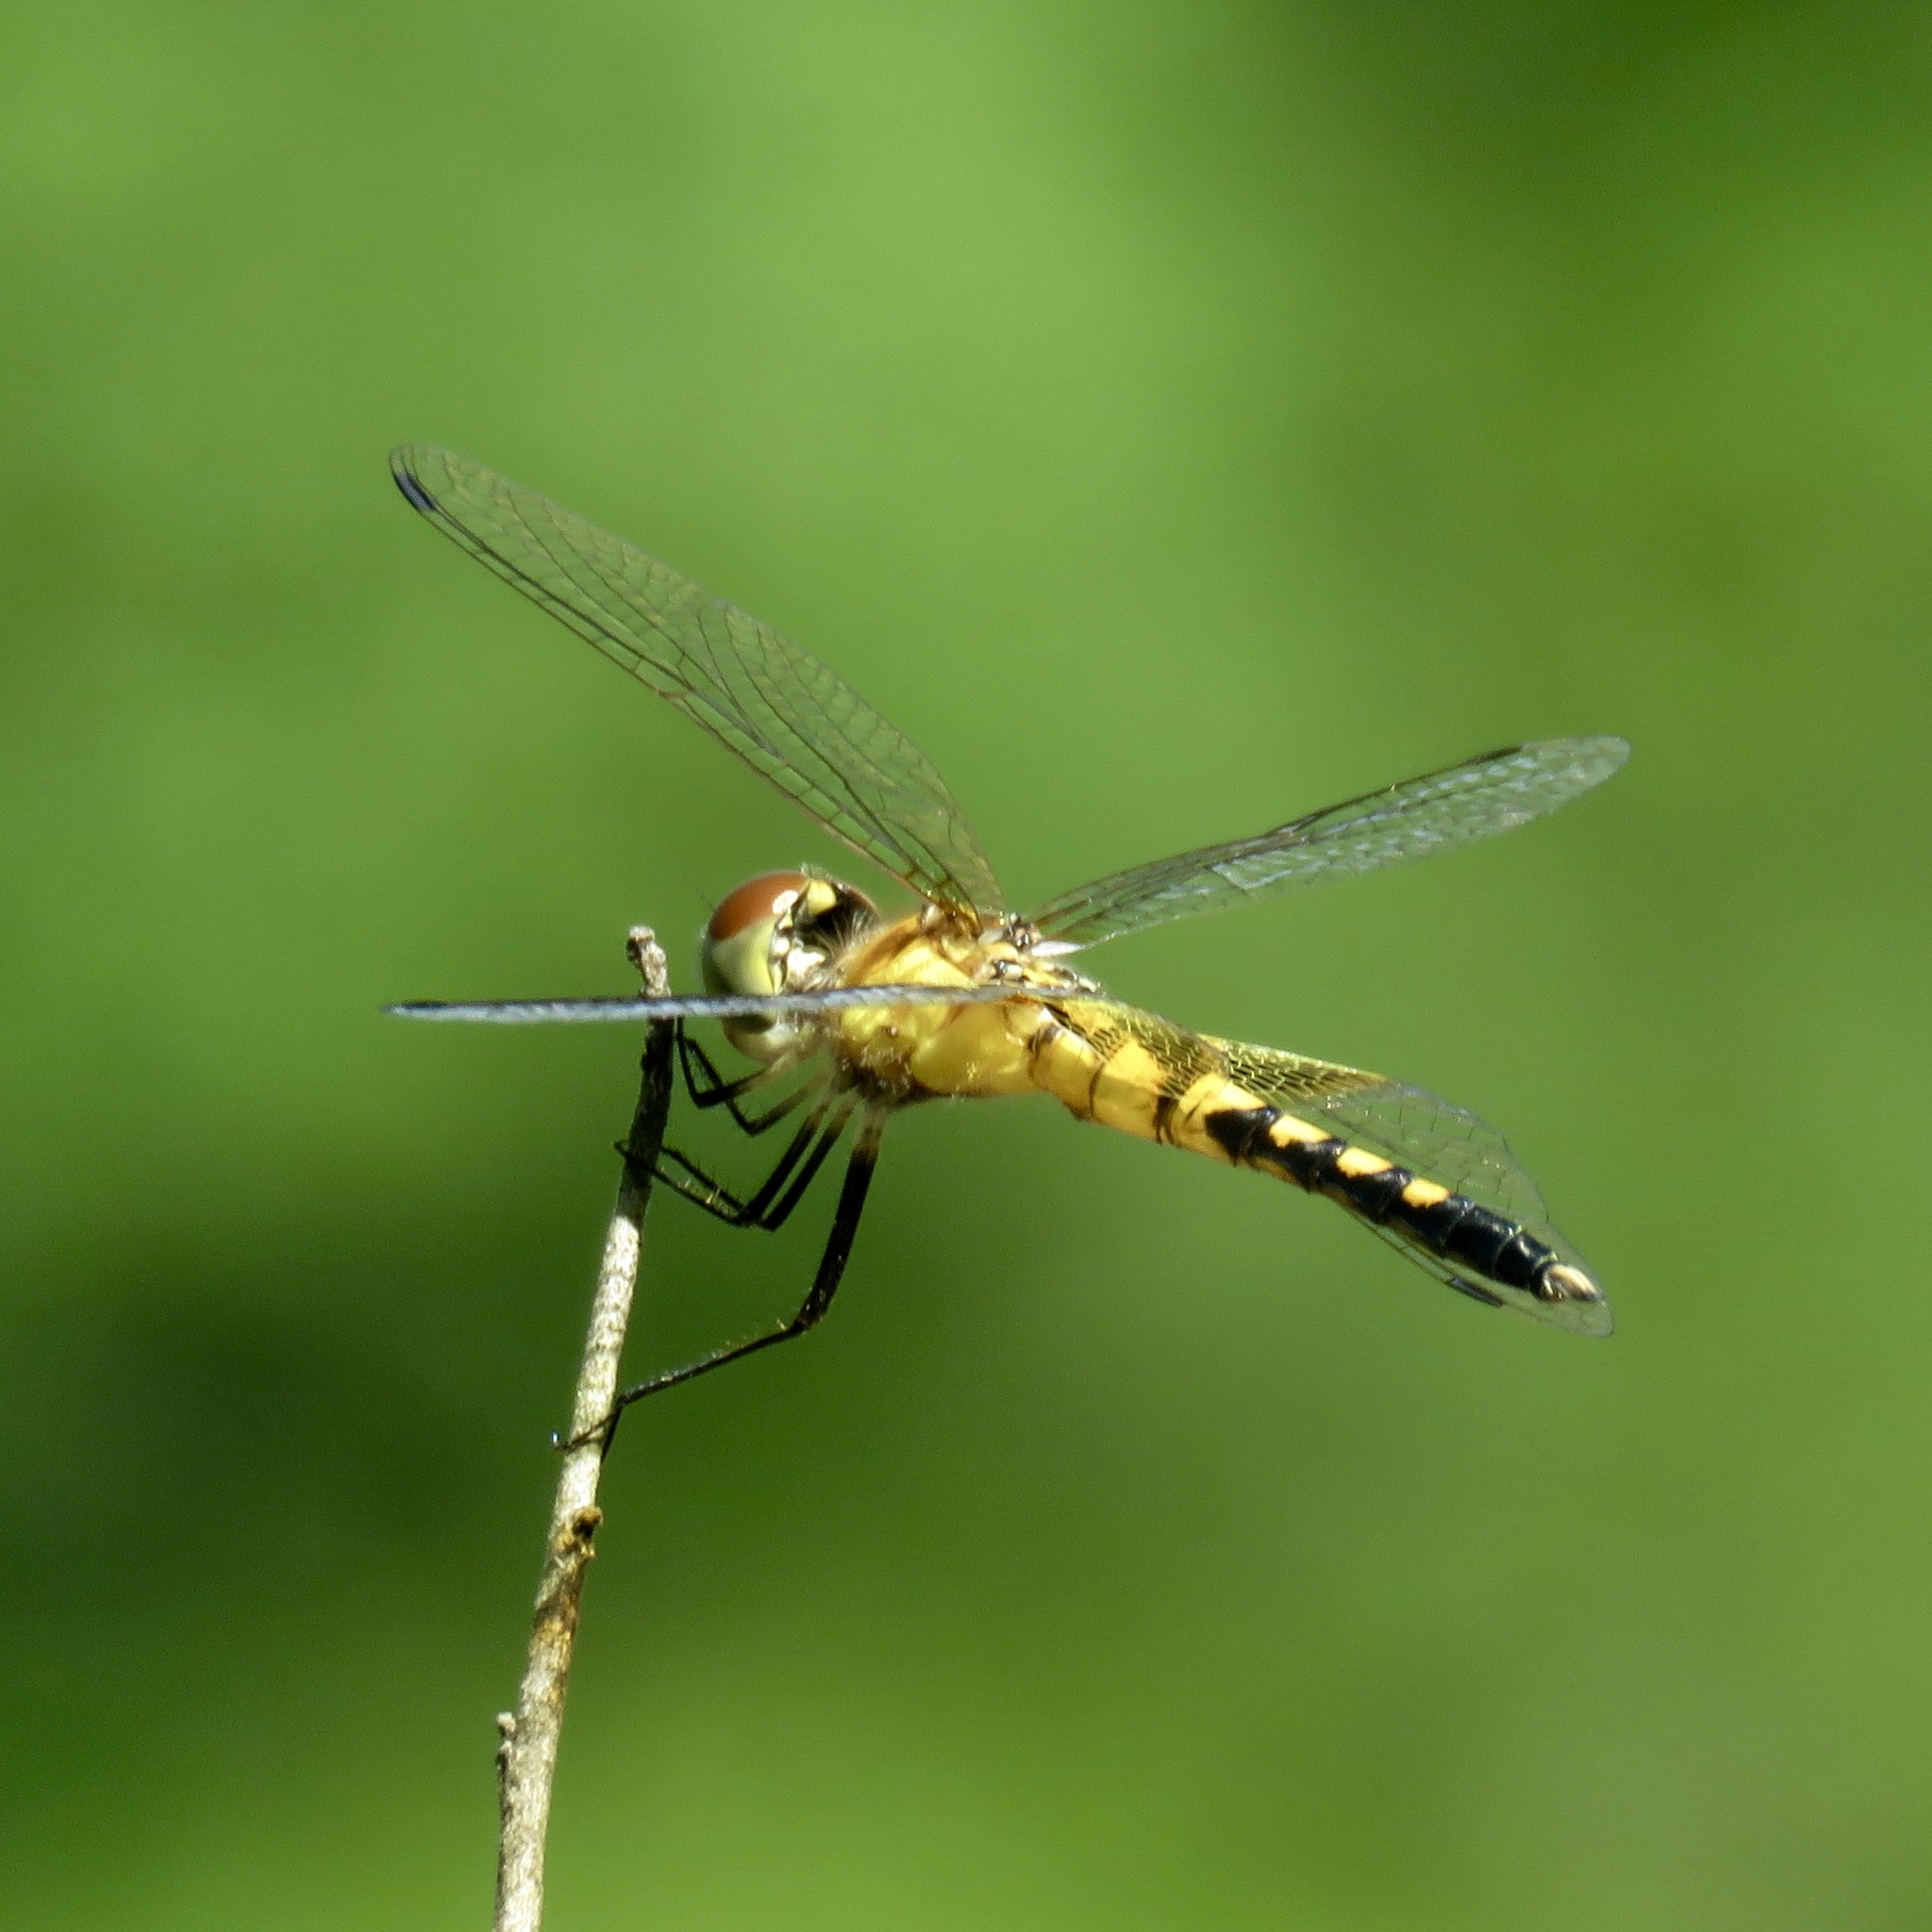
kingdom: Animalia
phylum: Arthropoda
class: Insecta
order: Odonata
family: Libellulidae
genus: Celithemis
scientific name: Celithemis amanda
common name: Amanda's pennant
